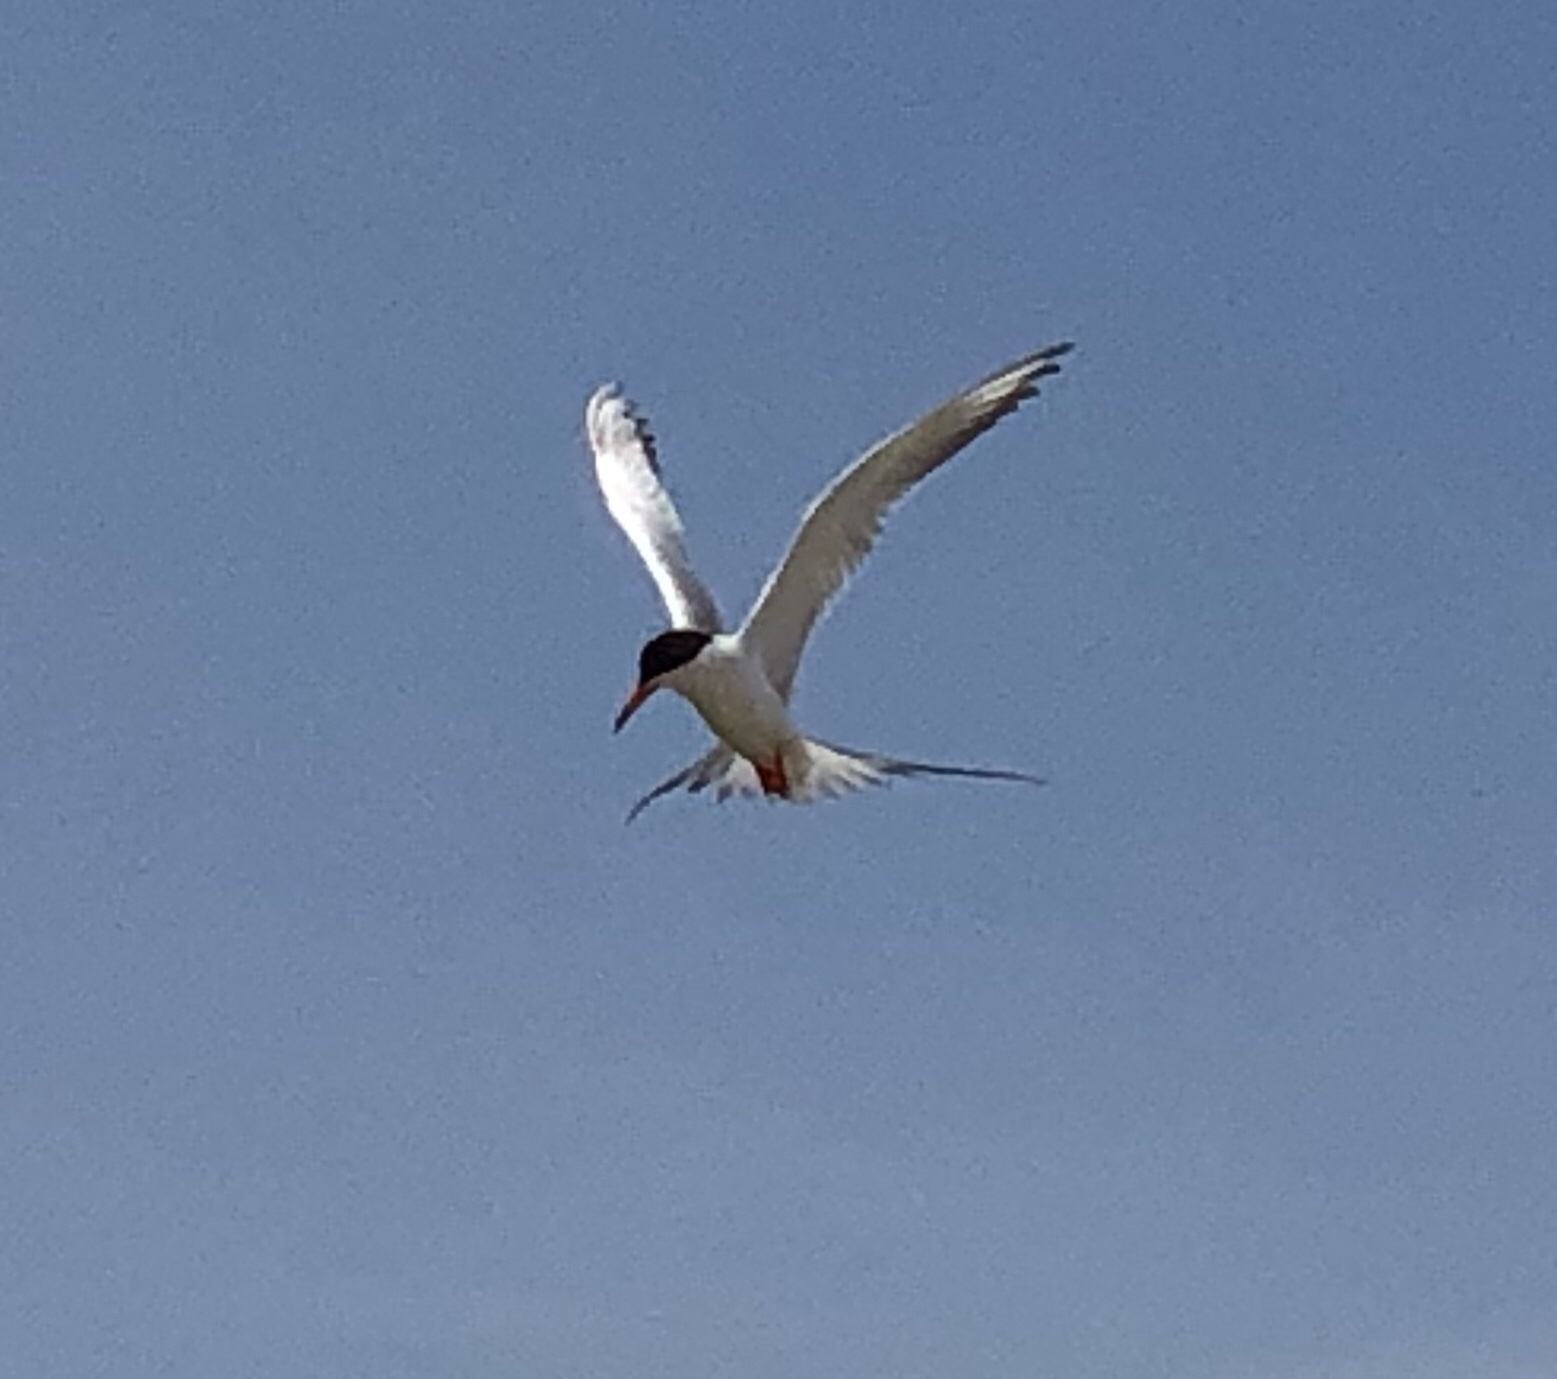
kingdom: Animalia
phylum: Chordata
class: Aves
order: Charadriiformes
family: Laridae
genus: Sterna
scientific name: Sterna forsteri
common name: Forster's tern
